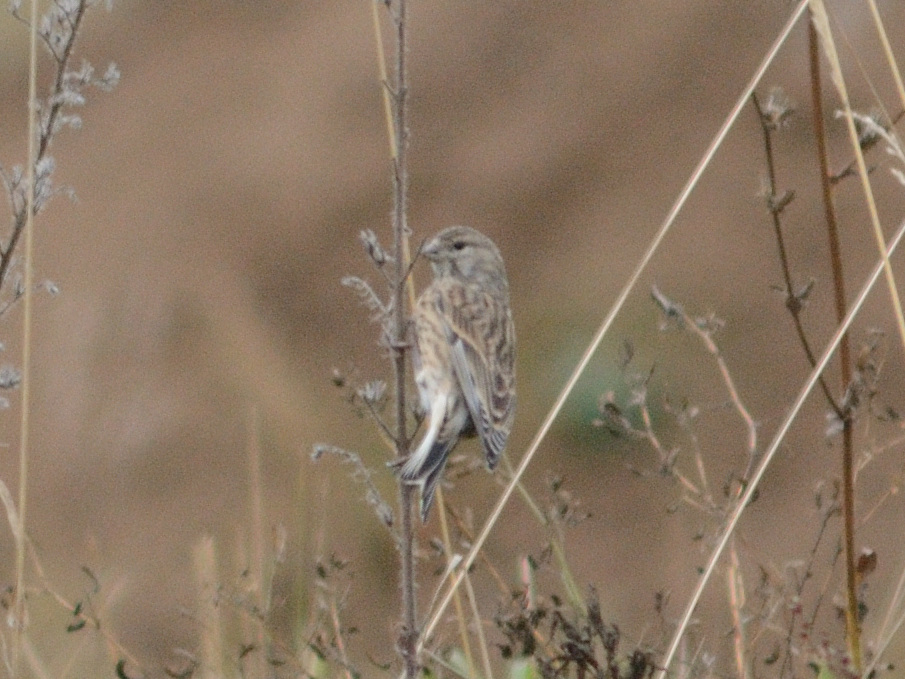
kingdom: Animalia
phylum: Chordata
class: Aves
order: Passeriformes
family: Fringillidae
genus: Linaria
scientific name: Linaria cannabina
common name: Common linnet
